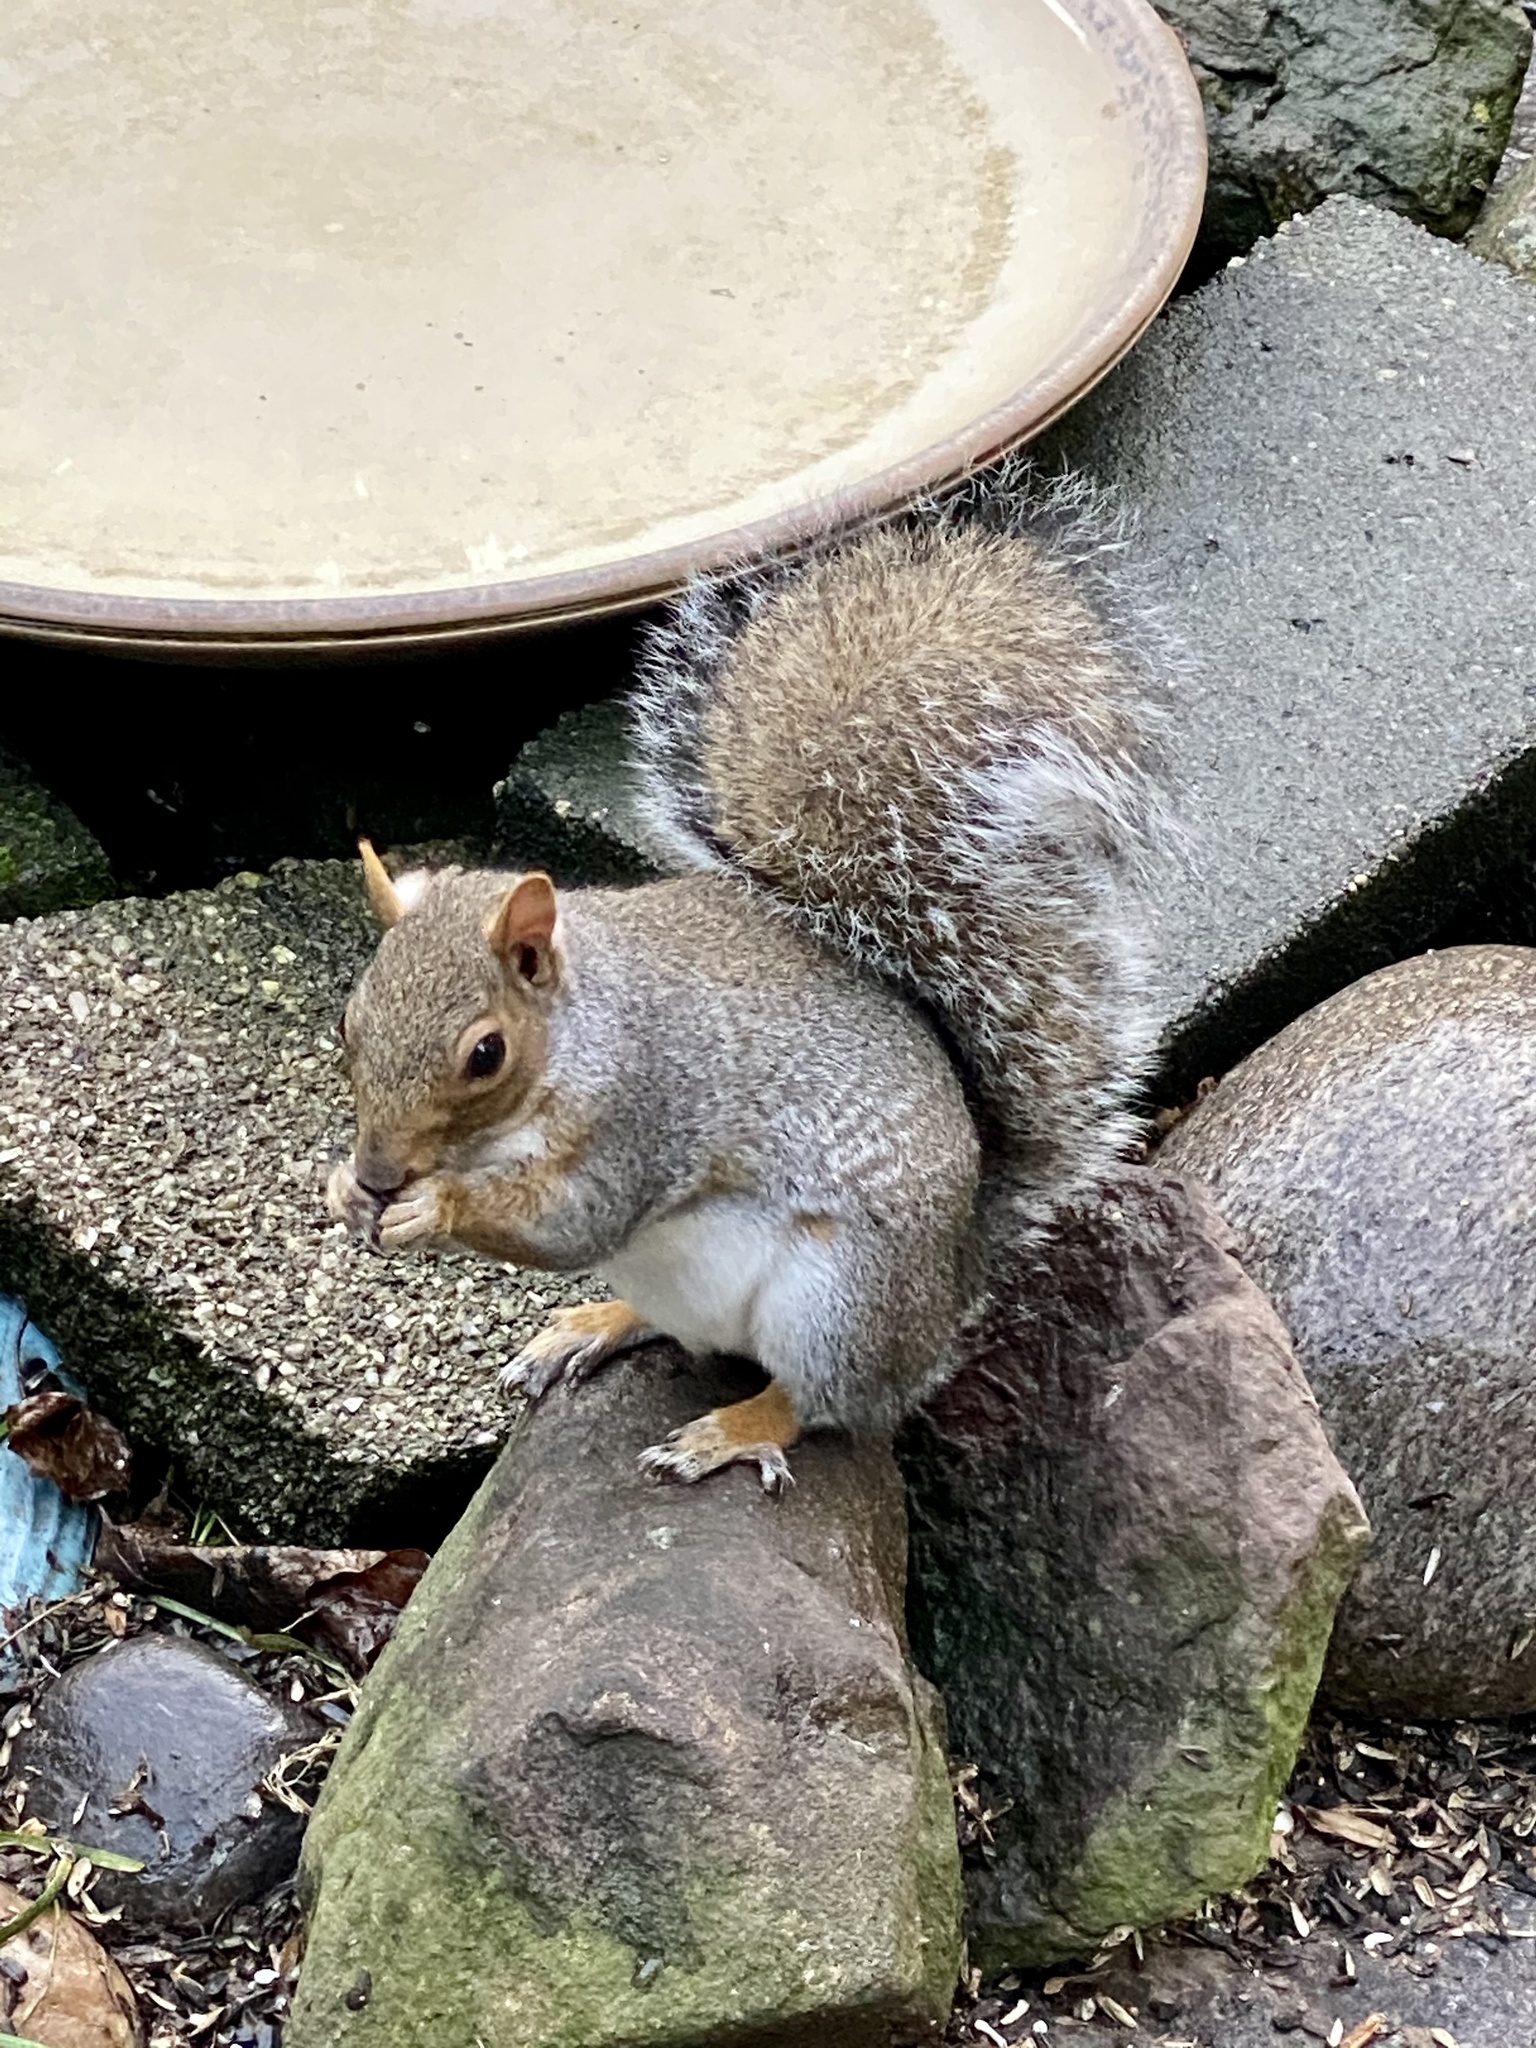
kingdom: Animalia
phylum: Chordata
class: Mammalia
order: Rodentia
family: Sciuridae
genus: Sciurus
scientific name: Sciurus carolinensis
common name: Eastern gray squirrel
